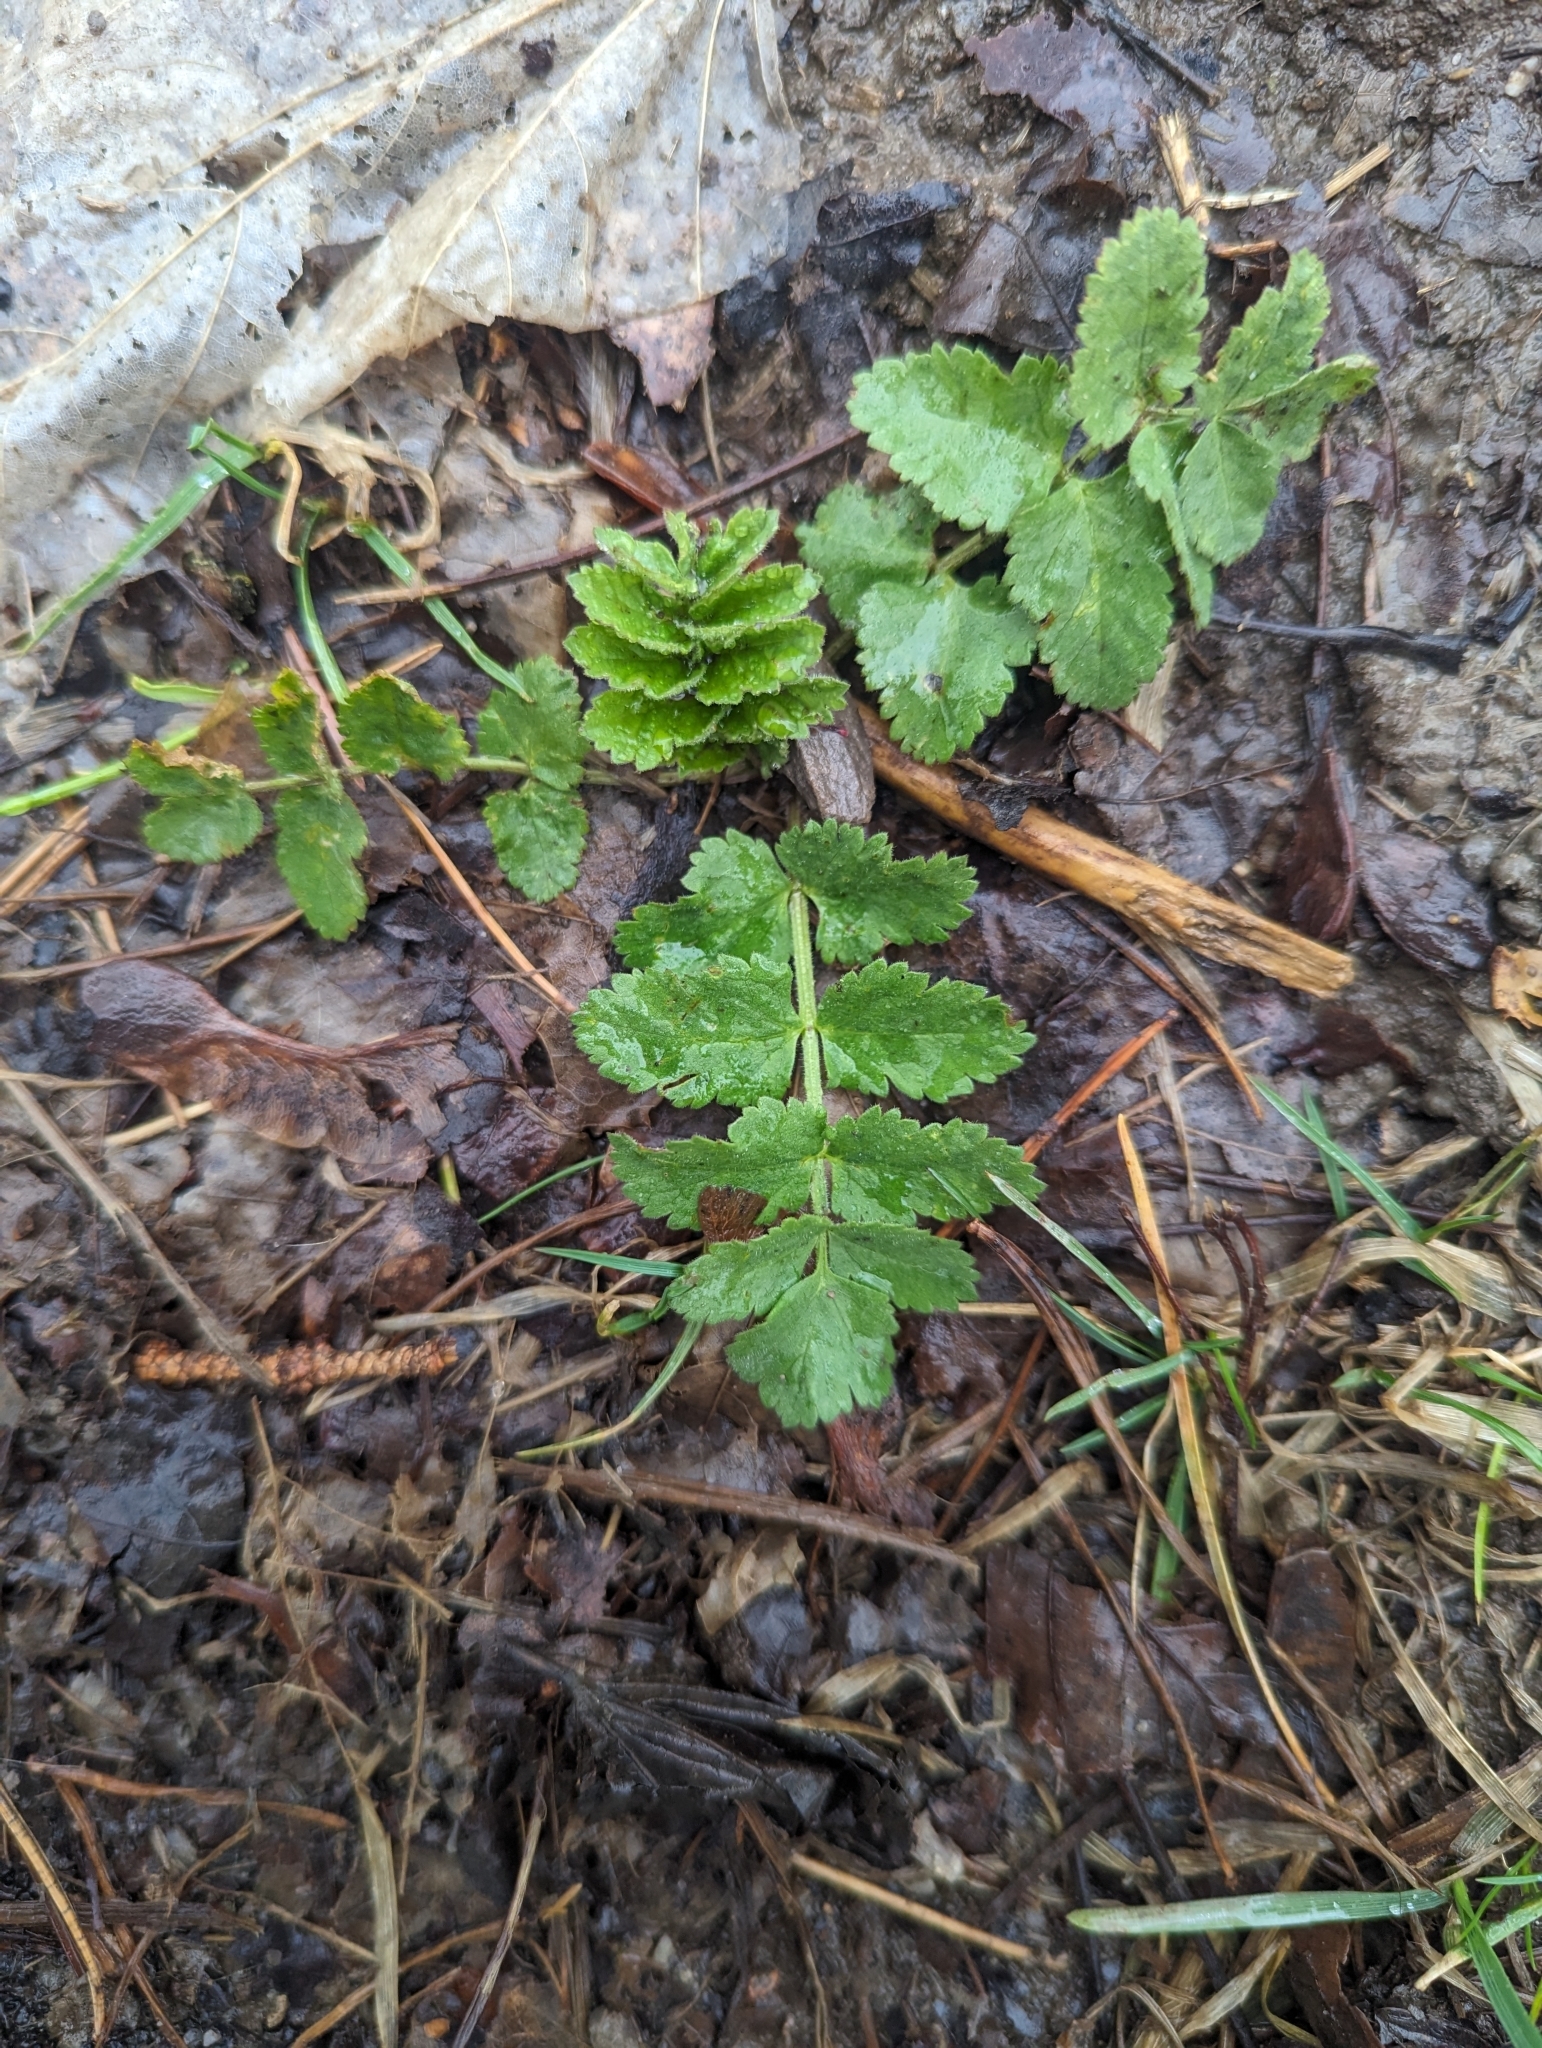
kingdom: Plantae
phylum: Tracheophyta
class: Magnoliopsida
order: Apiales
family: Apiaceae
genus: Pastinaca
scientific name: Pastinaca sativa
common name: Wild parsnip
